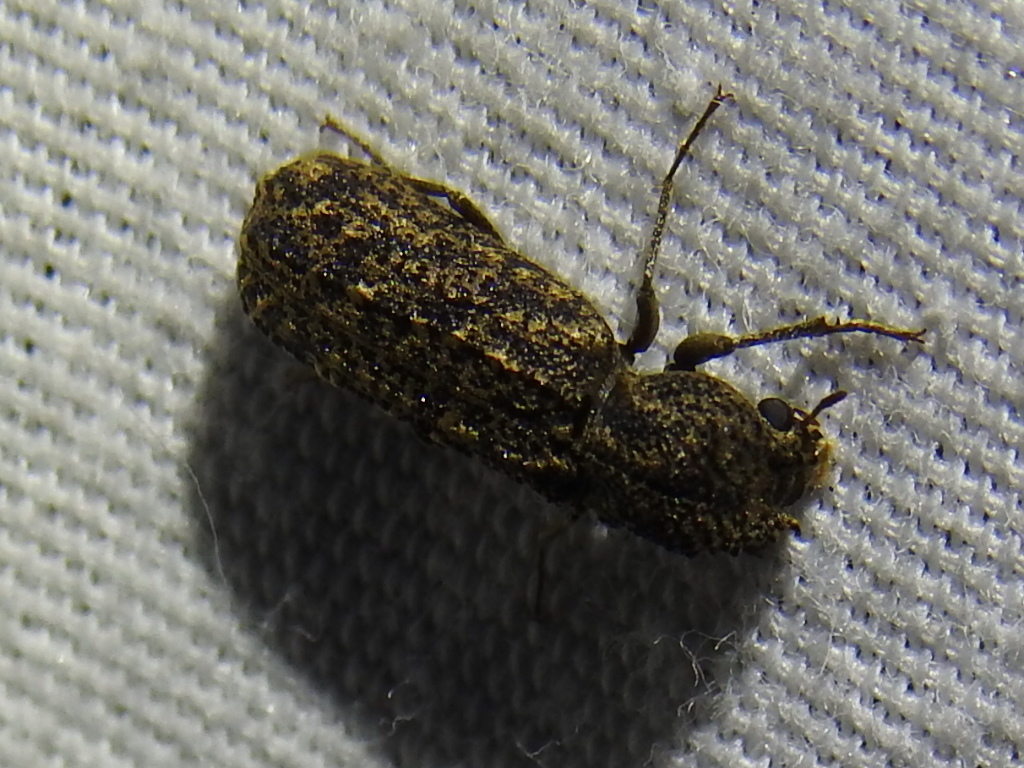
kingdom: Animalia
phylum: Arthropoda
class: Insecta
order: Coleoptera
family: Bostrichidae
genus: Lichenophanes
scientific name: Lichenophanes bicornis
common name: Two-horned powder-post beetle
